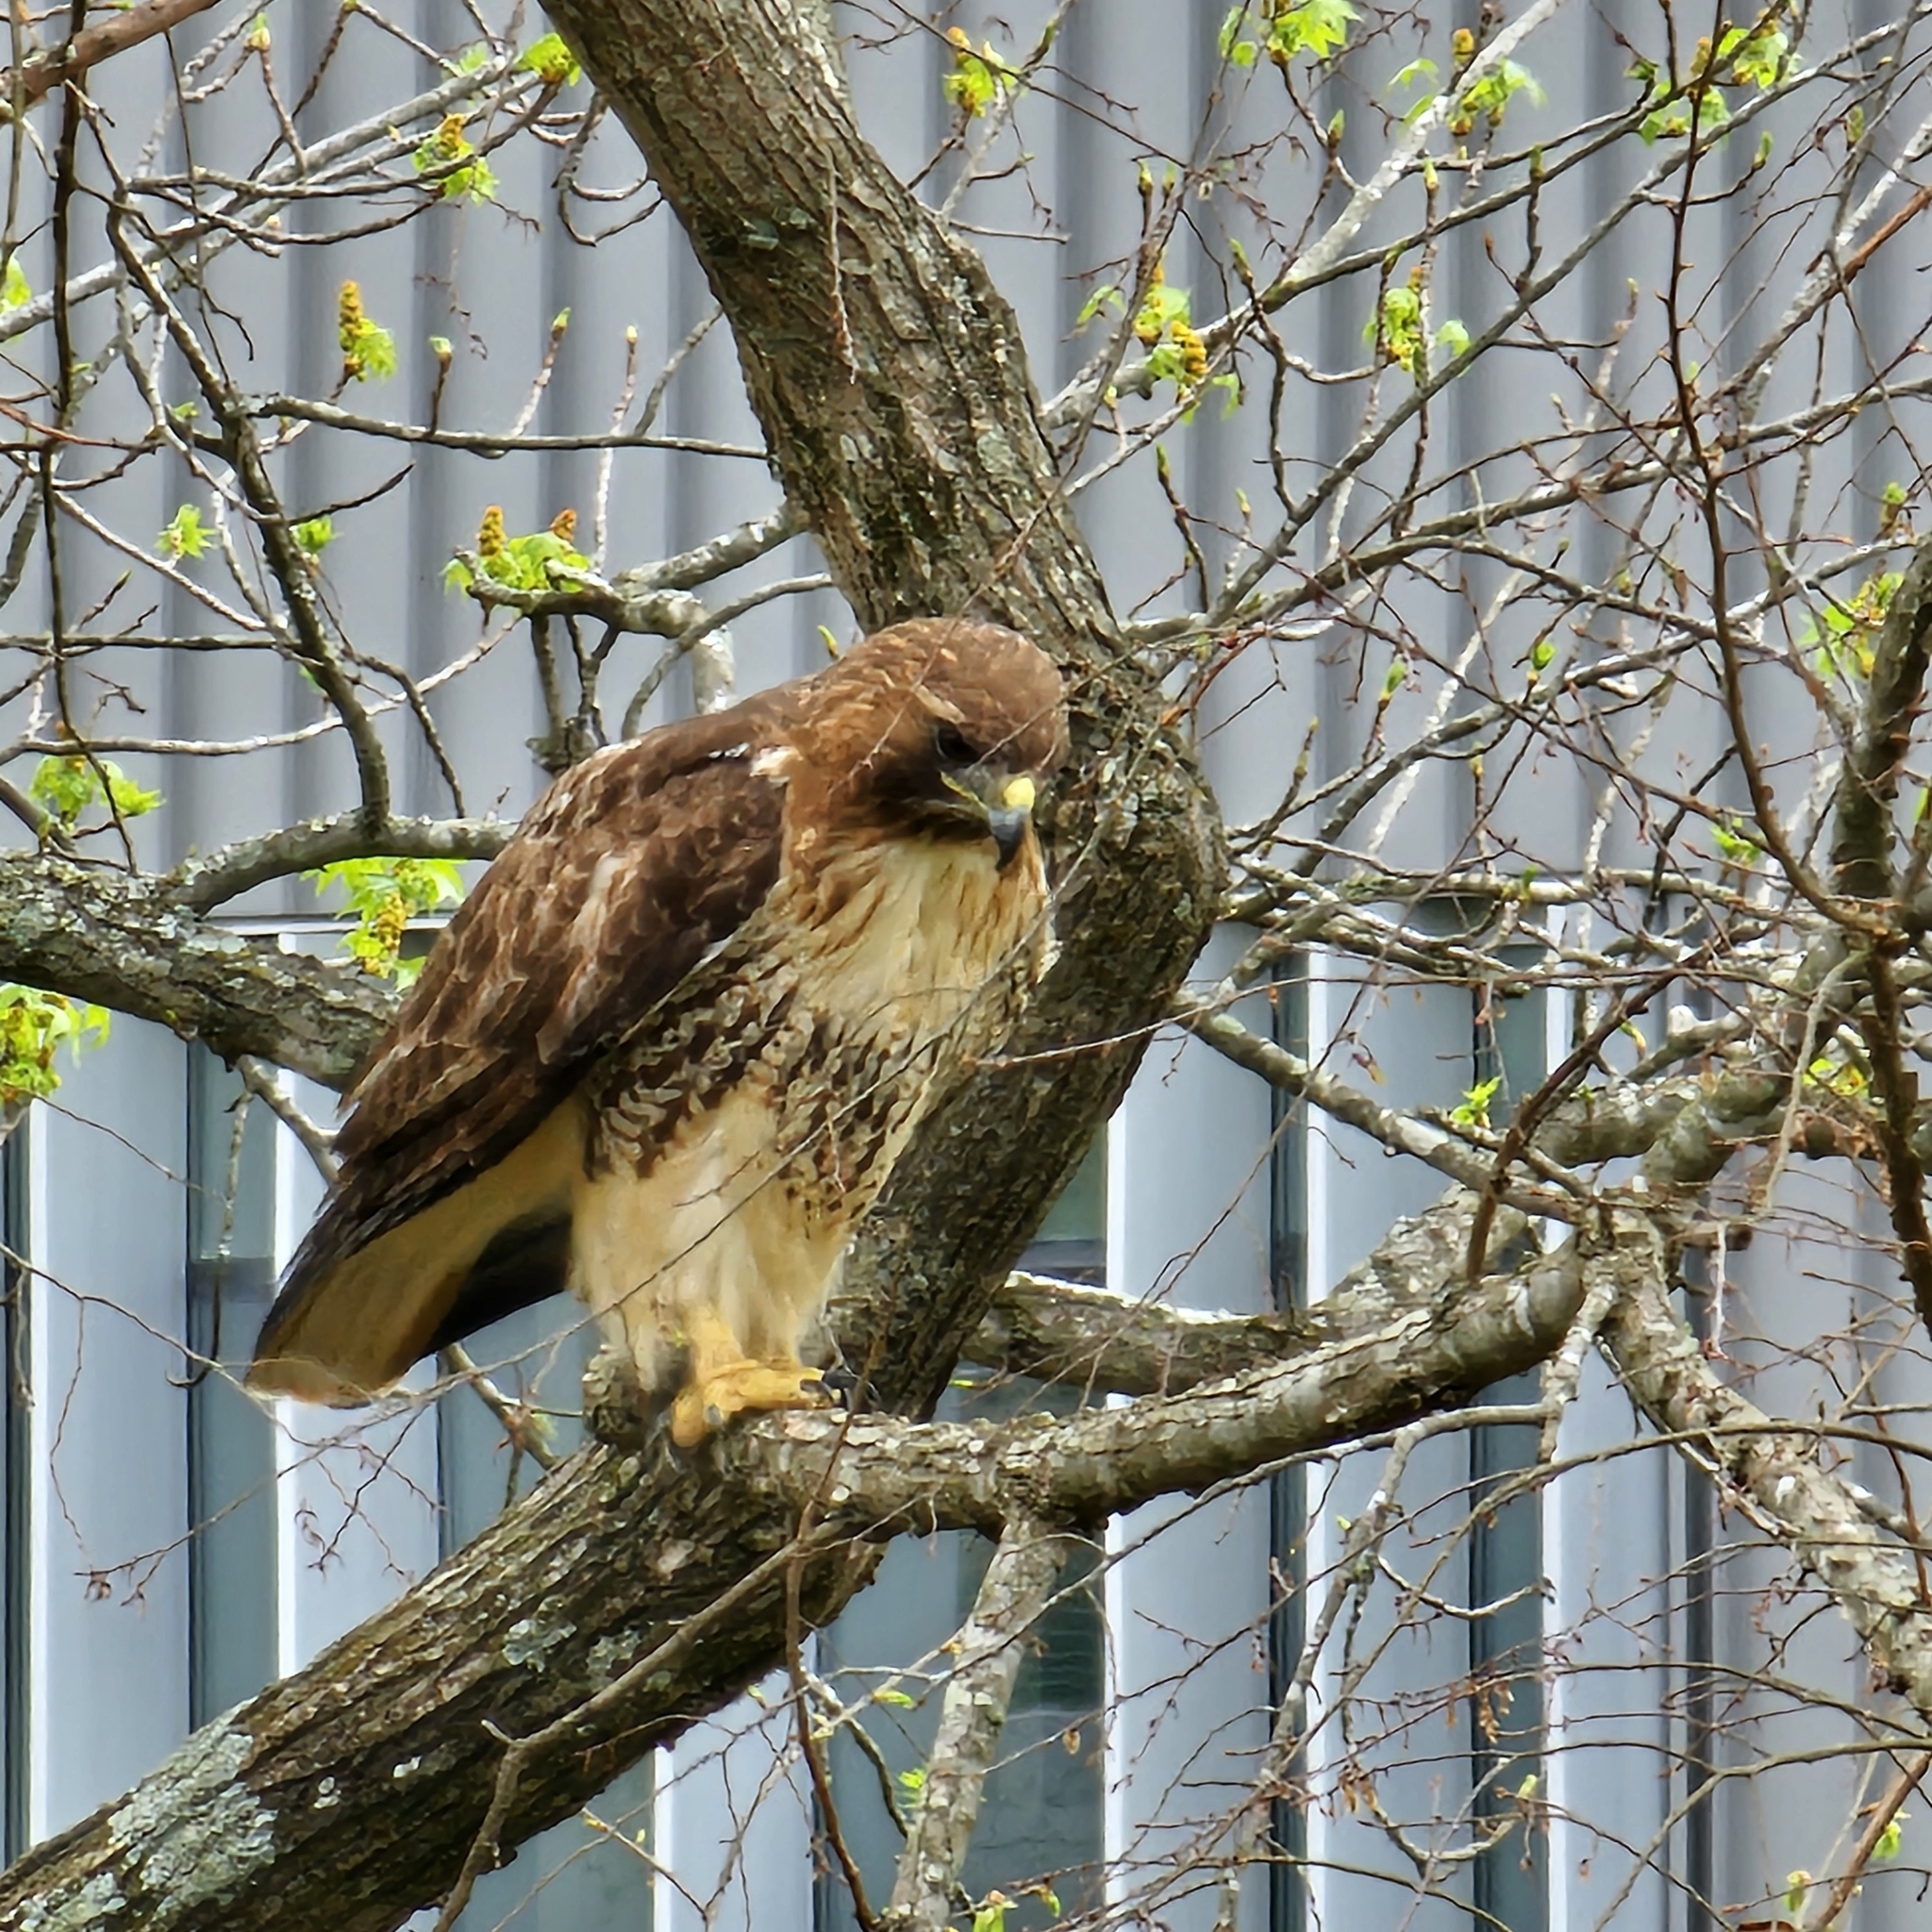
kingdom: Animalia
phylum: Chordata
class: Aves
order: Accipitriformes
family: Accipitridae
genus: Buteo
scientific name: Buteo jamaicensis
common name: Red-tailed hawk
